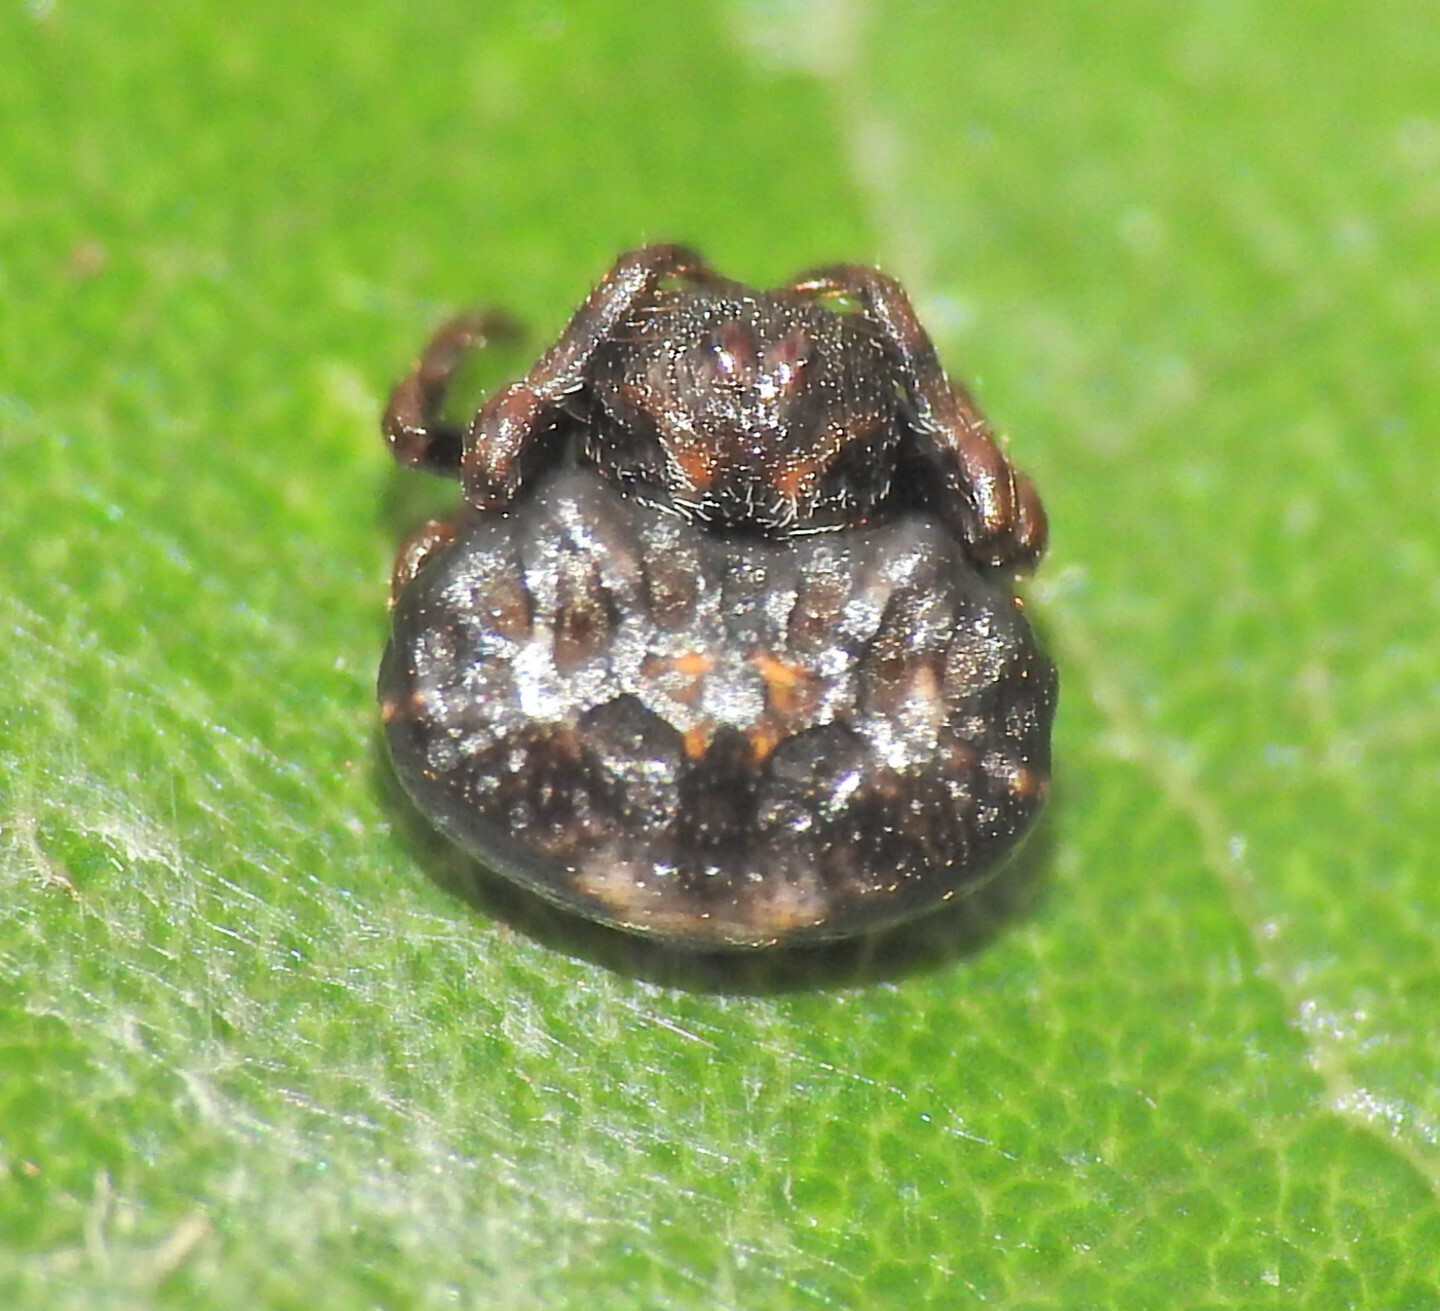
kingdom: Animalia
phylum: Arthropoda
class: Arachnida
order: Araneae
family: Arkyidae
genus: Arkys
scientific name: Arkys curtulus
